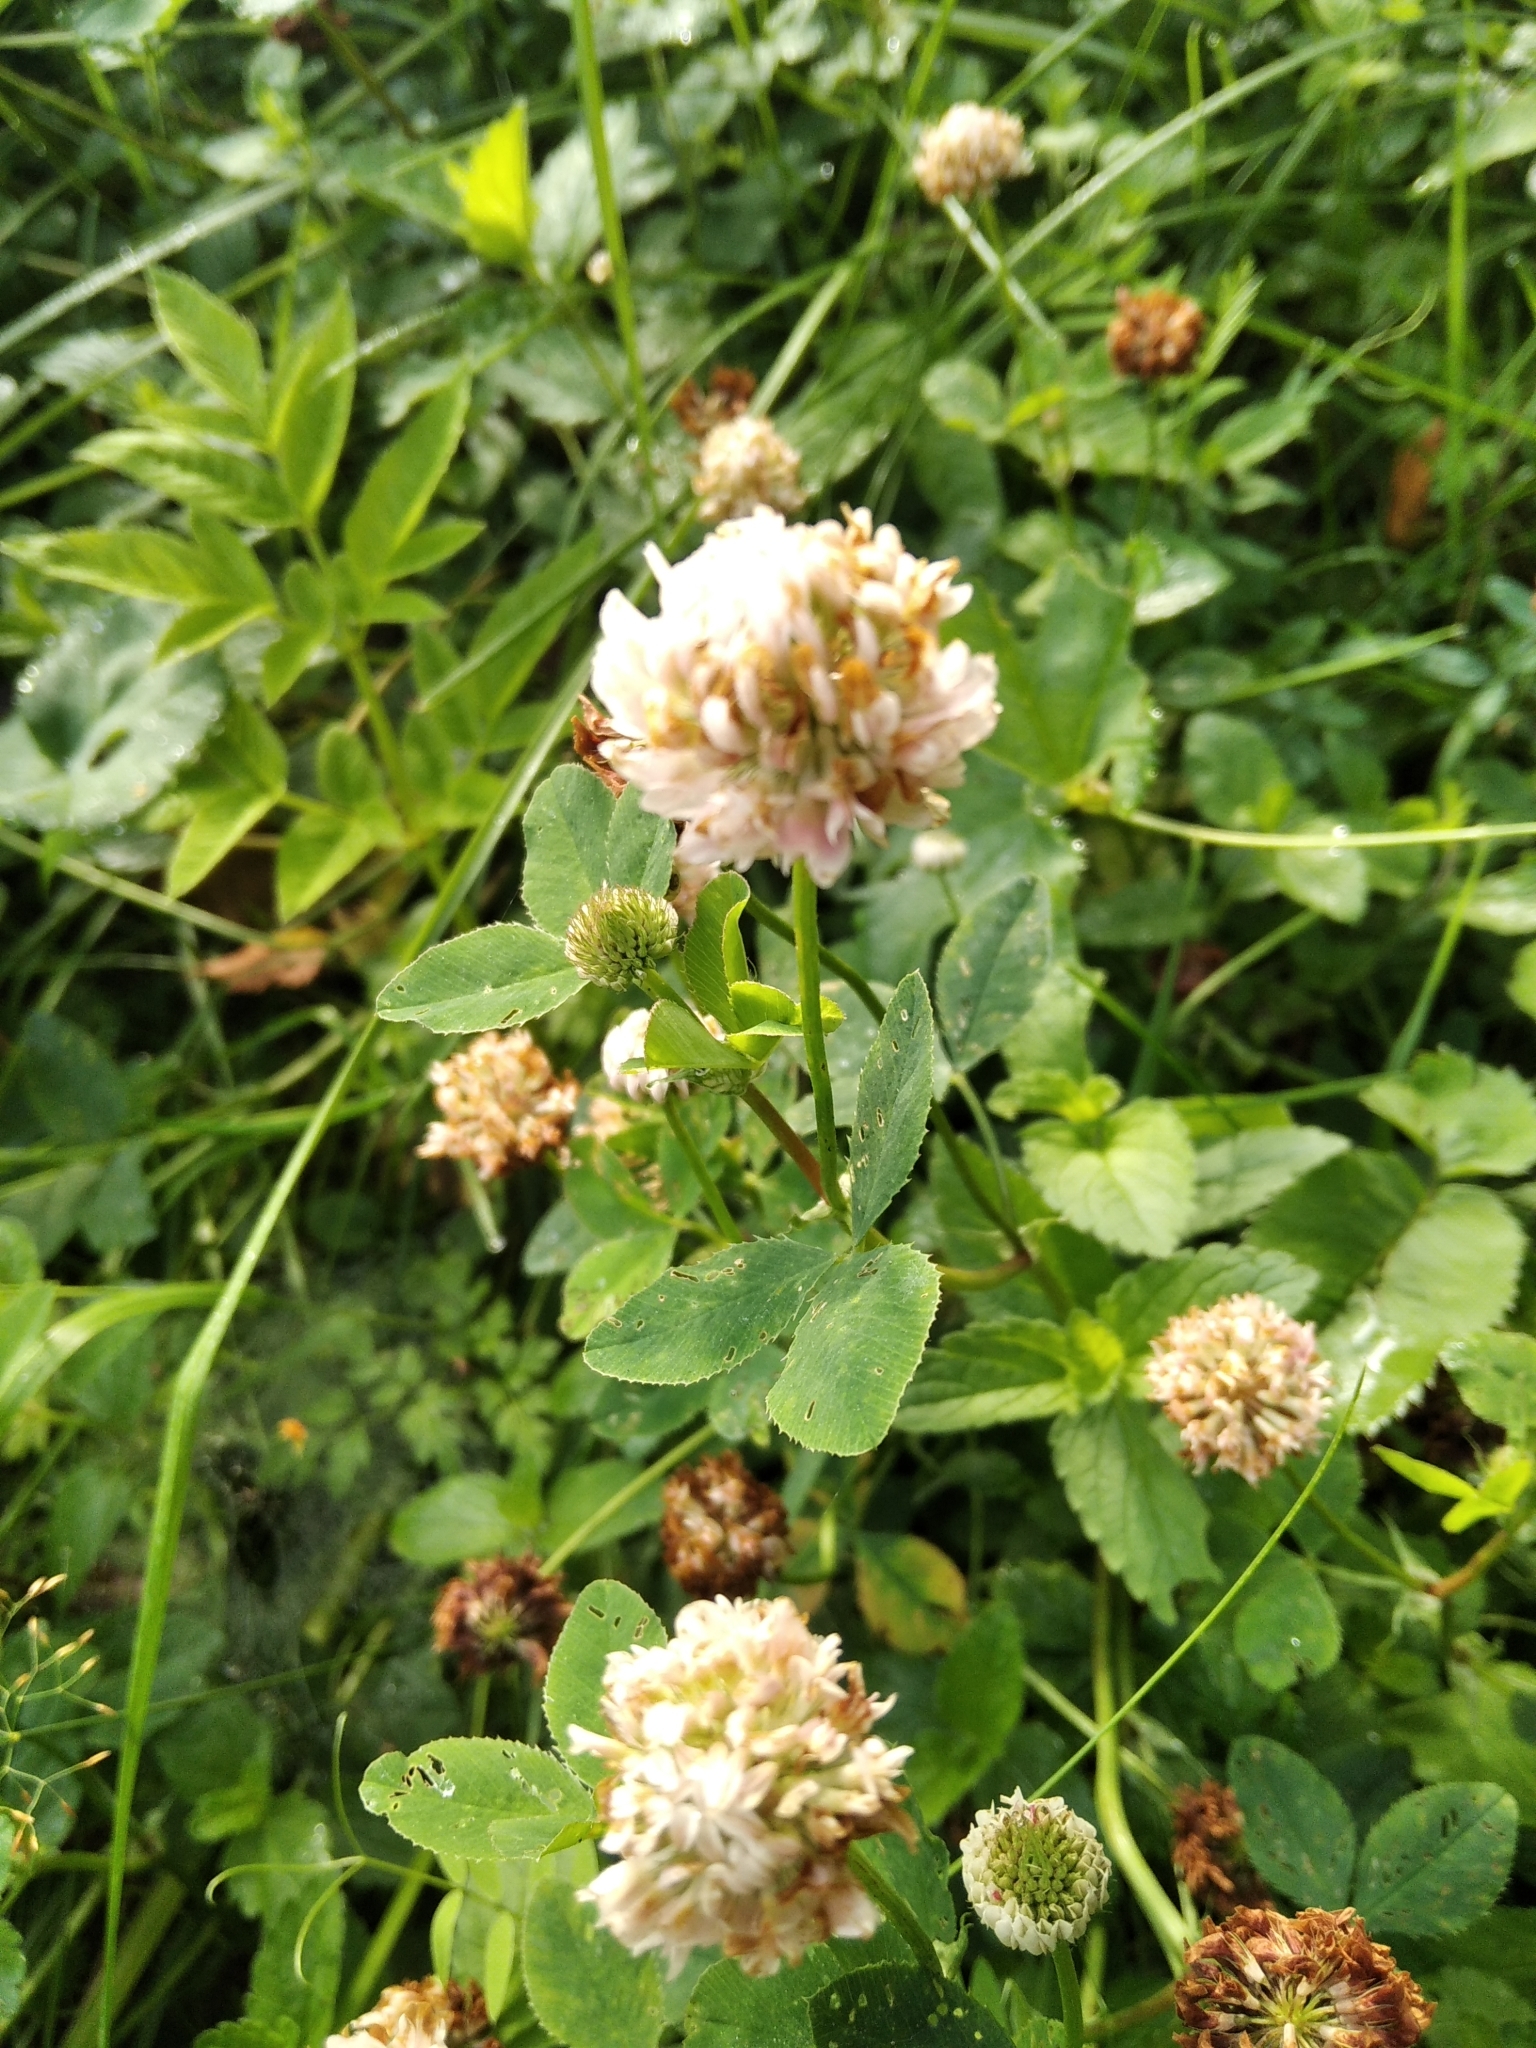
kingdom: Plantae
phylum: Tracheophyta
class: Magnoliopsida
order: Fabales
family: Fabaceae
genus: Trifolium
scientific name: Trifolium repens
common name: White clover
